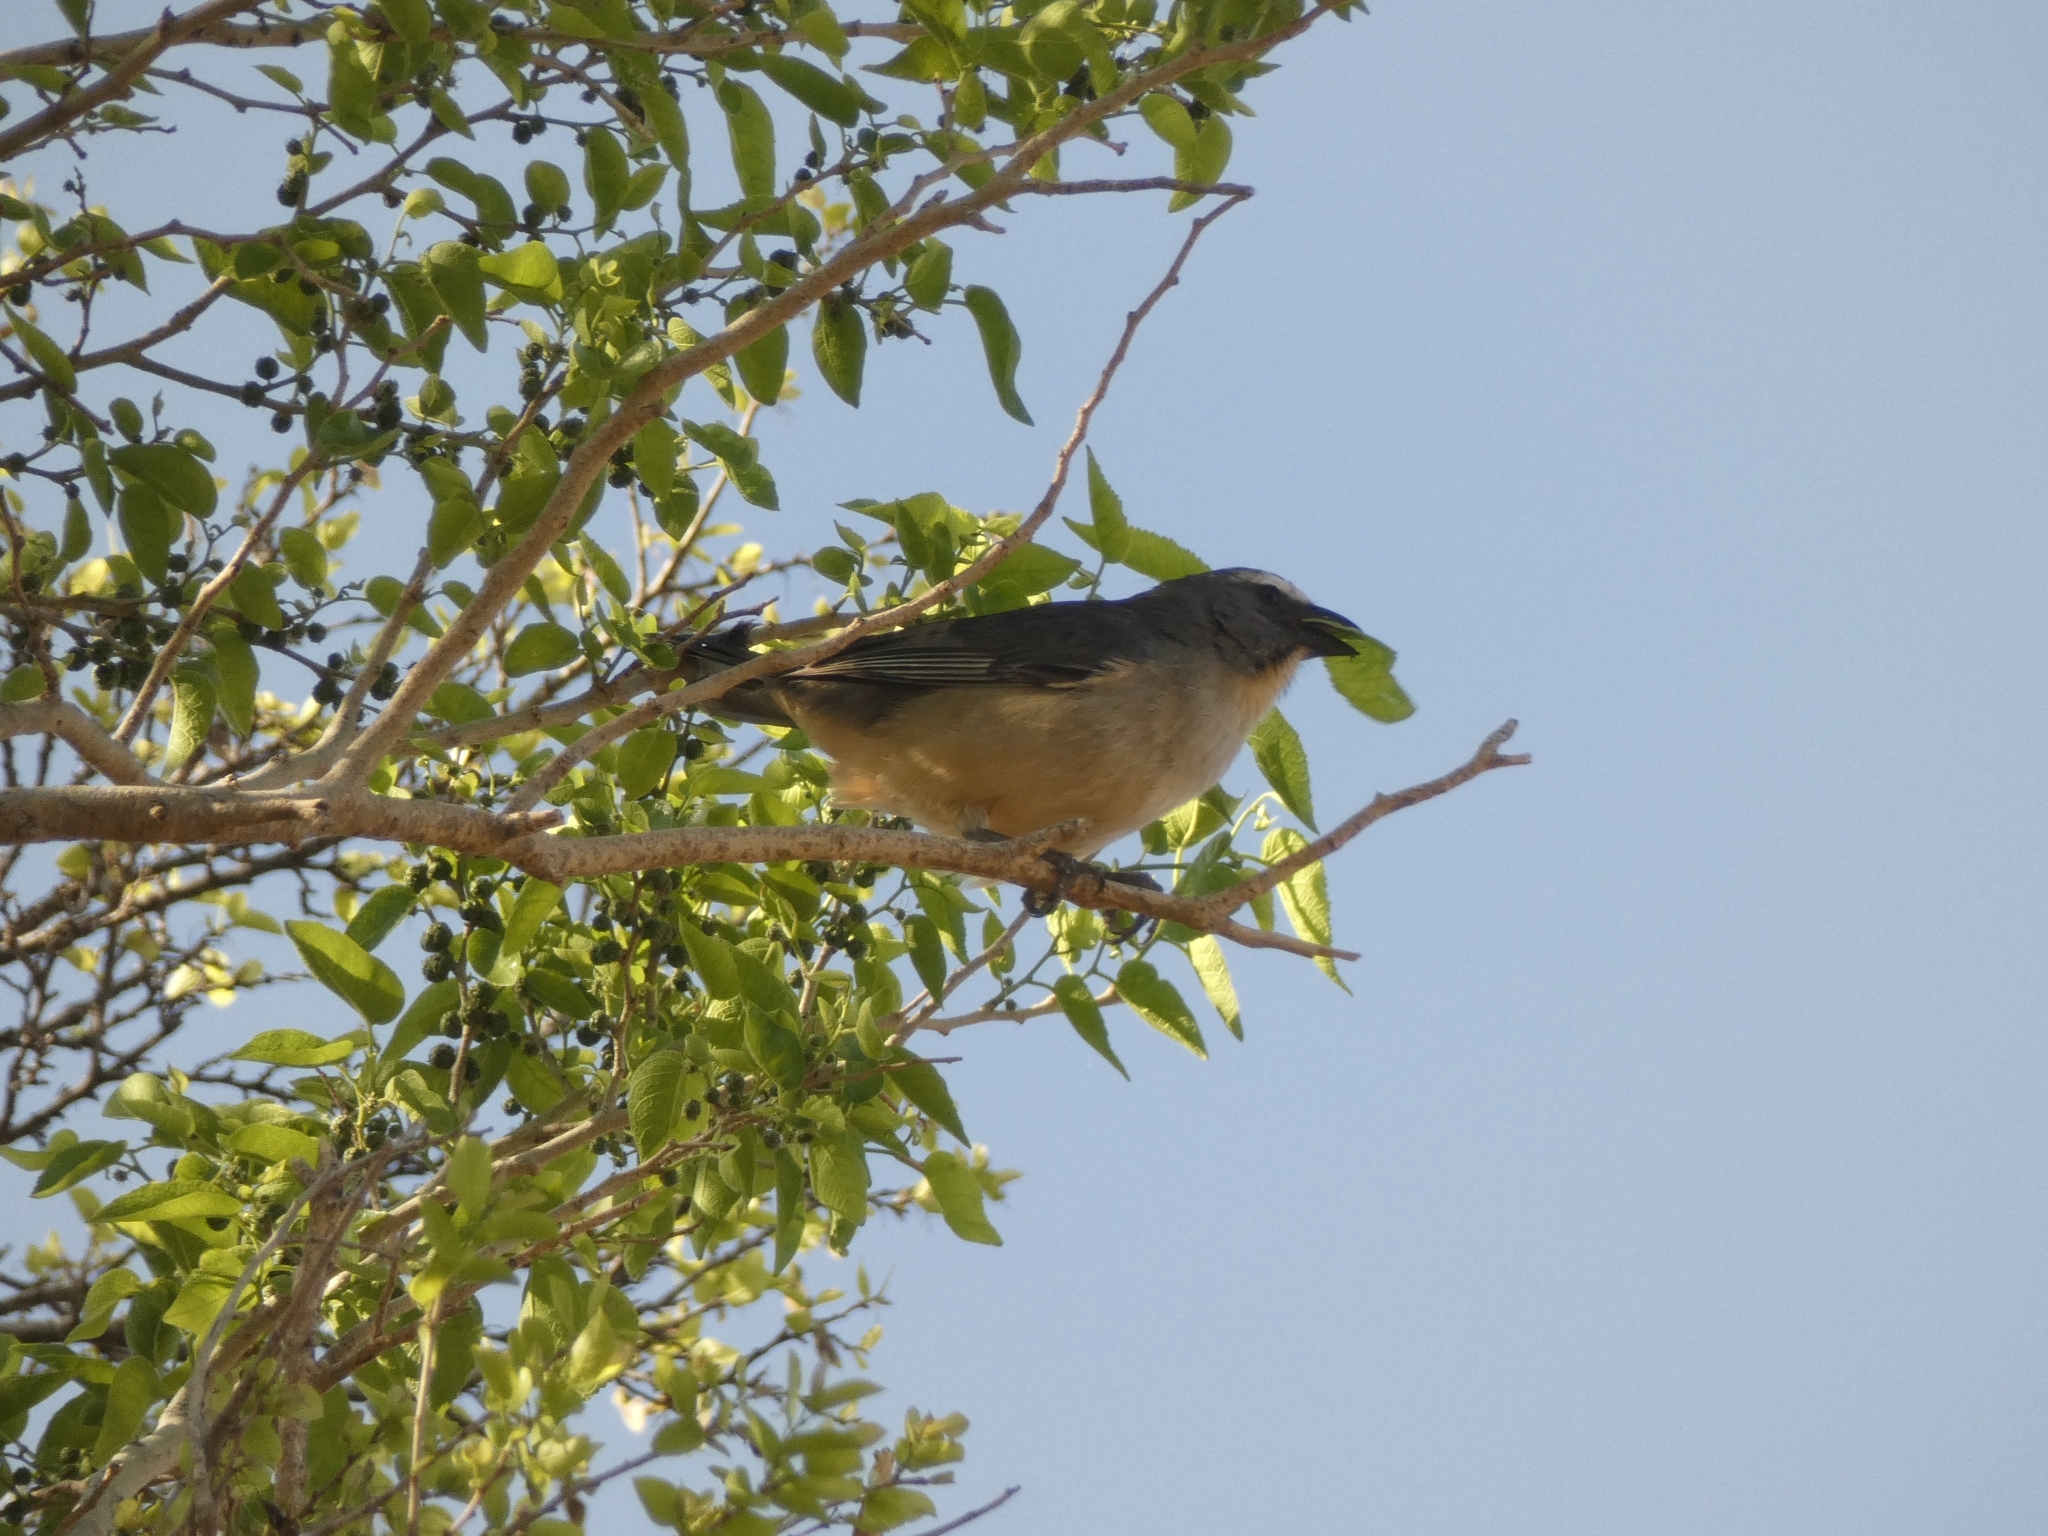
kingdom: Animalia
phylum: Chordata
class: Aves
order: Passeriformes
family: Thraupidae
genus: Saltator
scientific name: Saltator coerulescens
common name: Grayish saltator
